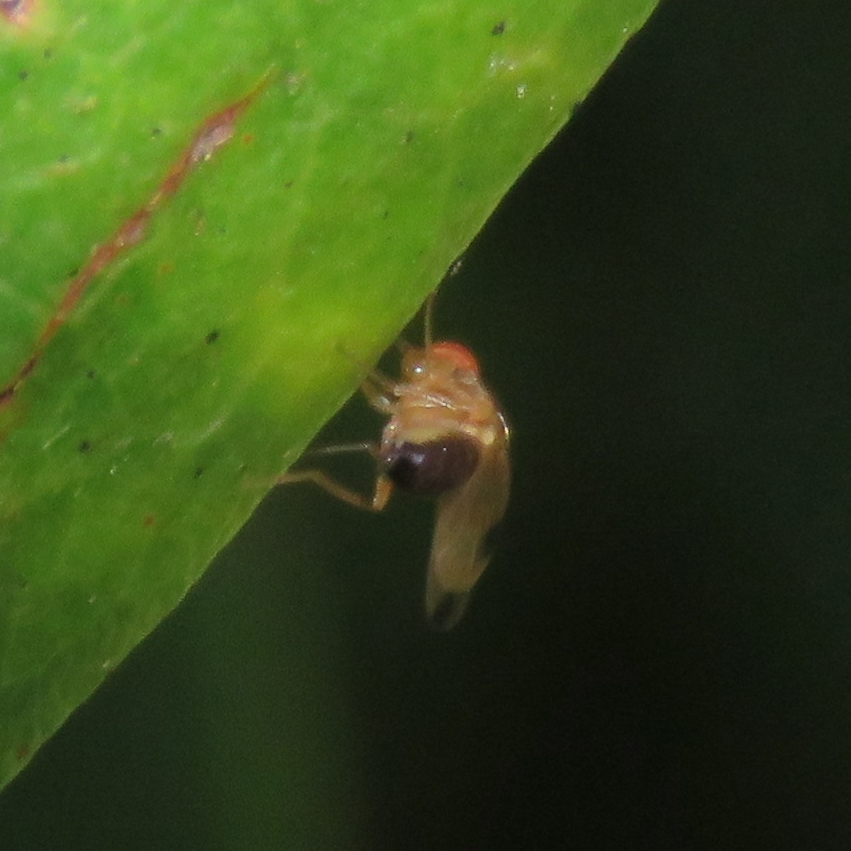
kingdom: Animalia
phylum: Arthropoda
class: Insecta
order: Diptera
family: Drosophilidae
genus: Drosophila
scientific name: Drosophila suzukii
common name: Spotted-wing drosophila
